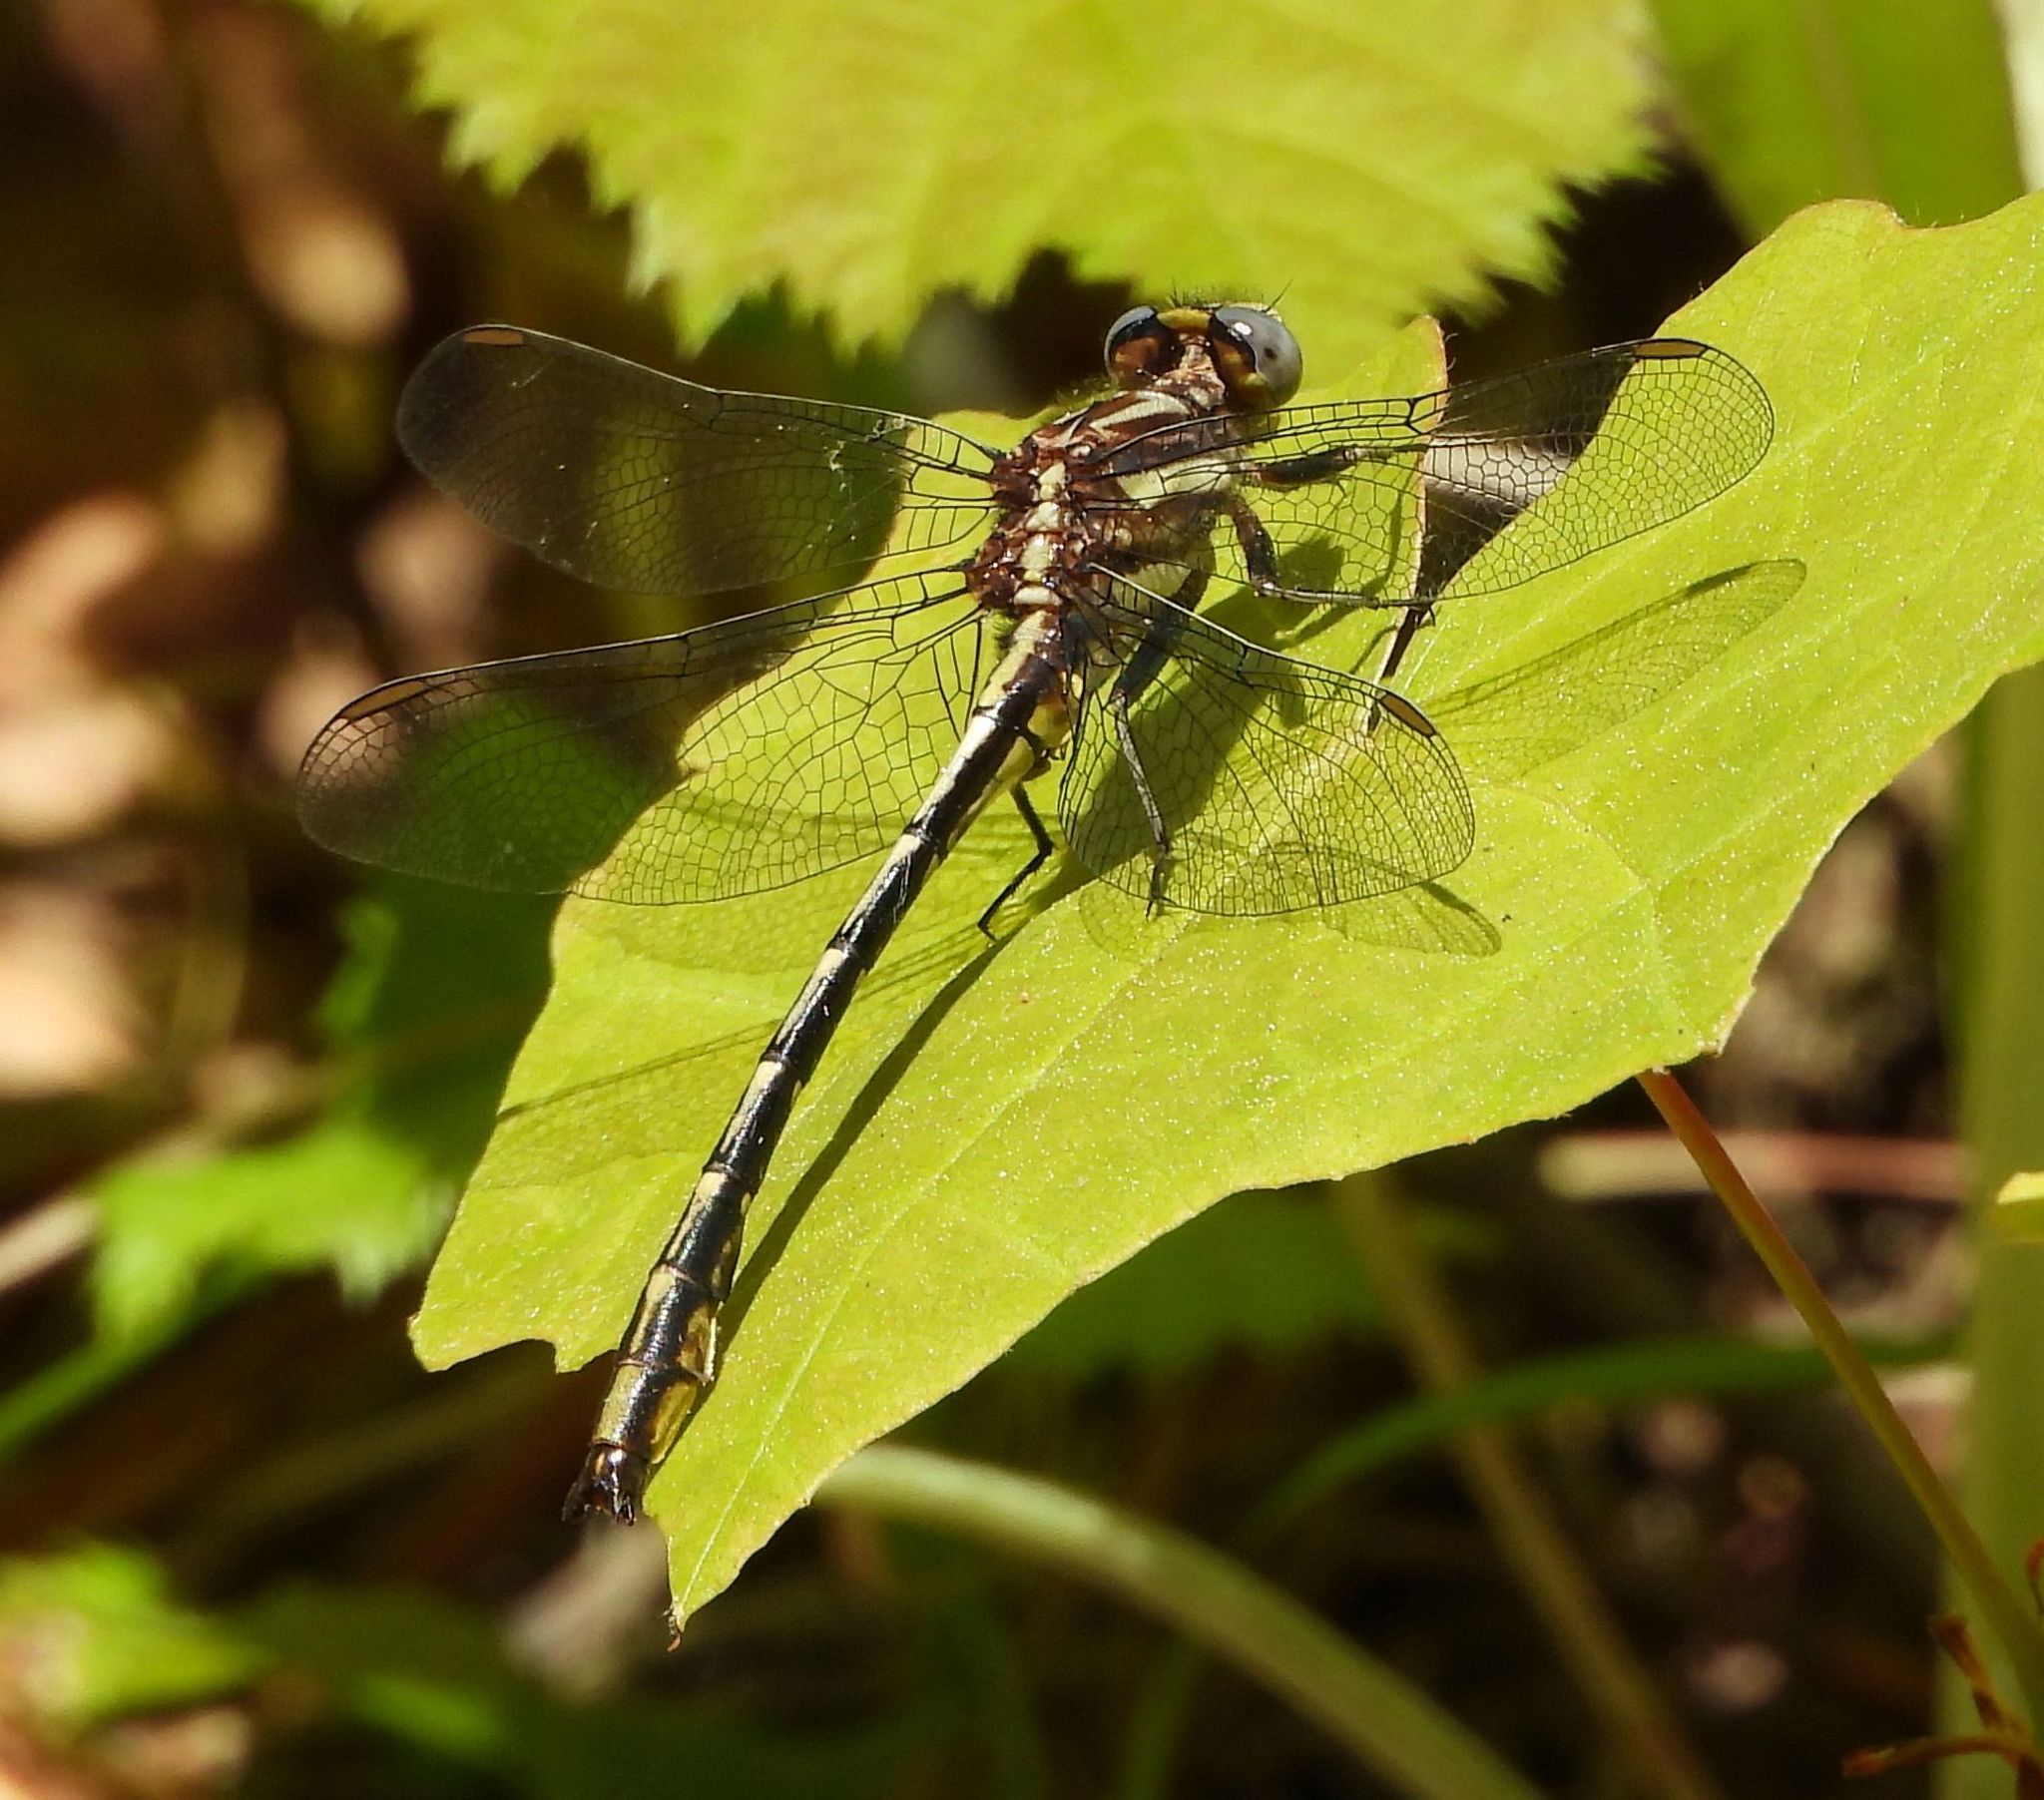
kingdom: Animalia
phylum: Arthropoda
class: Insecta
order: Odonata
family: Gomphidae
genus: Phanogomphus
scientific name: Phanogomphus exilis
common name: Lancet clubtail
